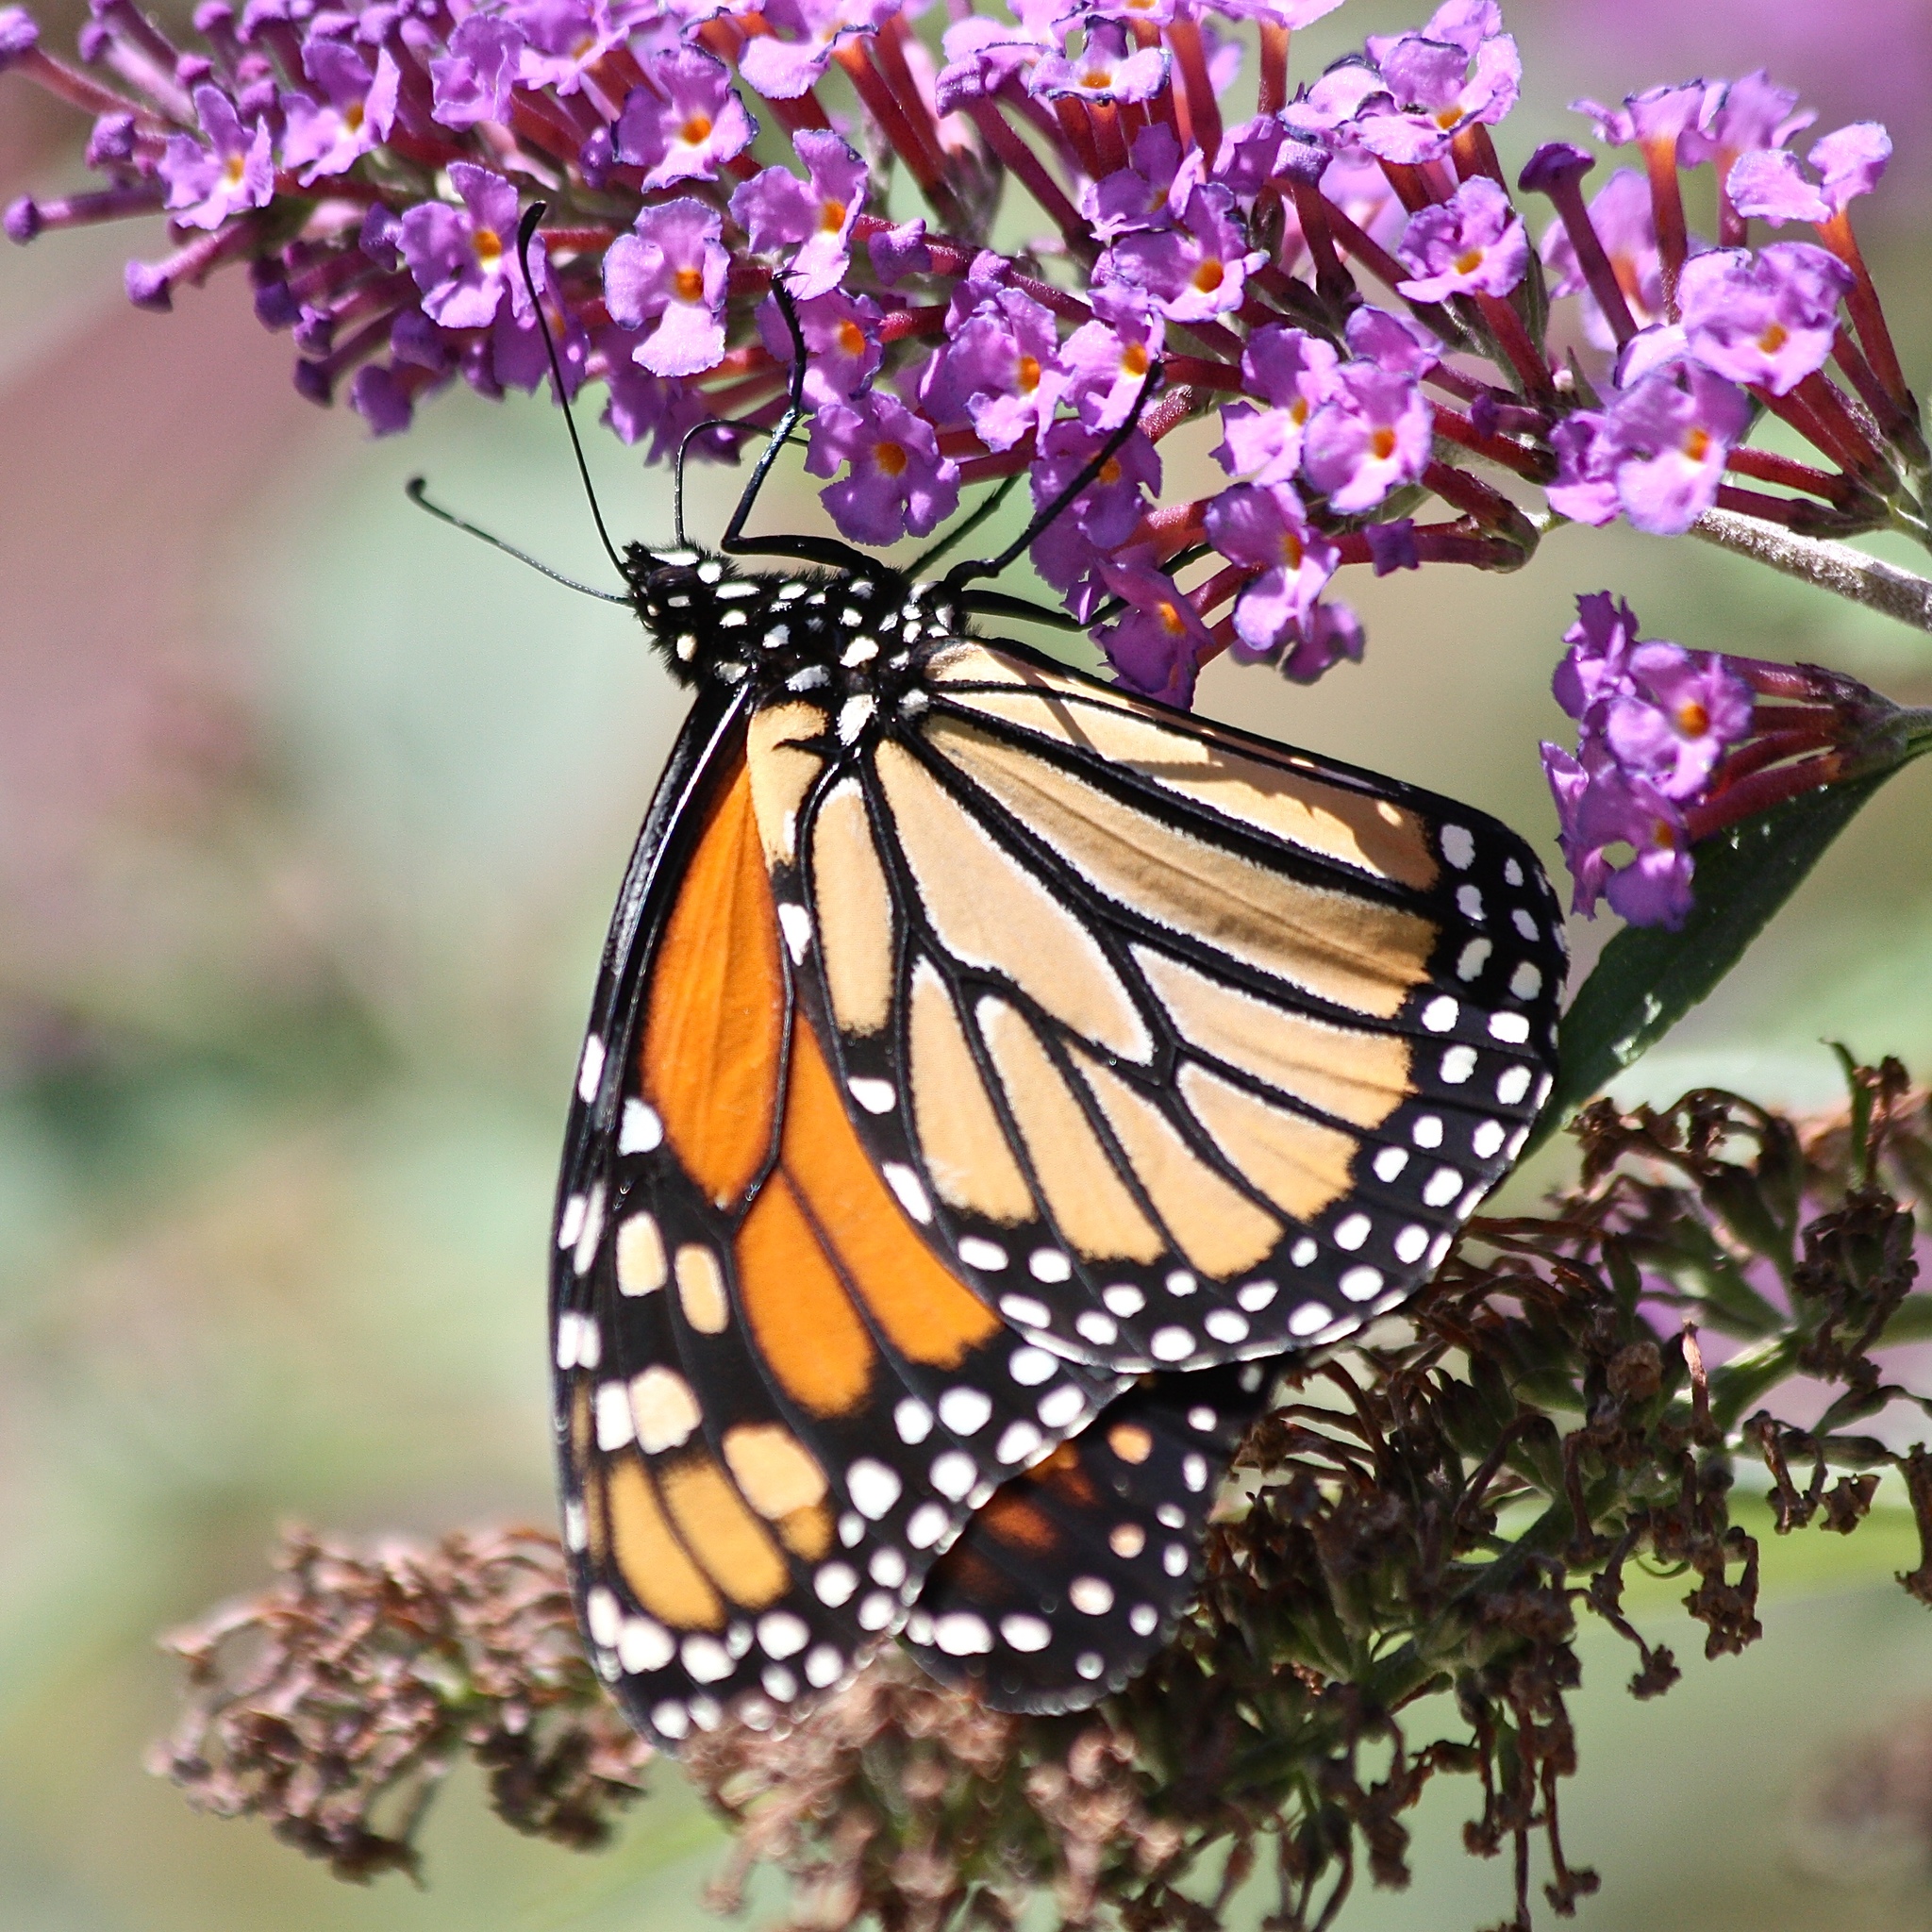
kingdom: Animalia
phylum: Arthropoda
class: Insecta
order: Lepidoptera
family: Nymphalidae
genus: Danaus
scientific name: Danaus plexippus
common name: Monarch
